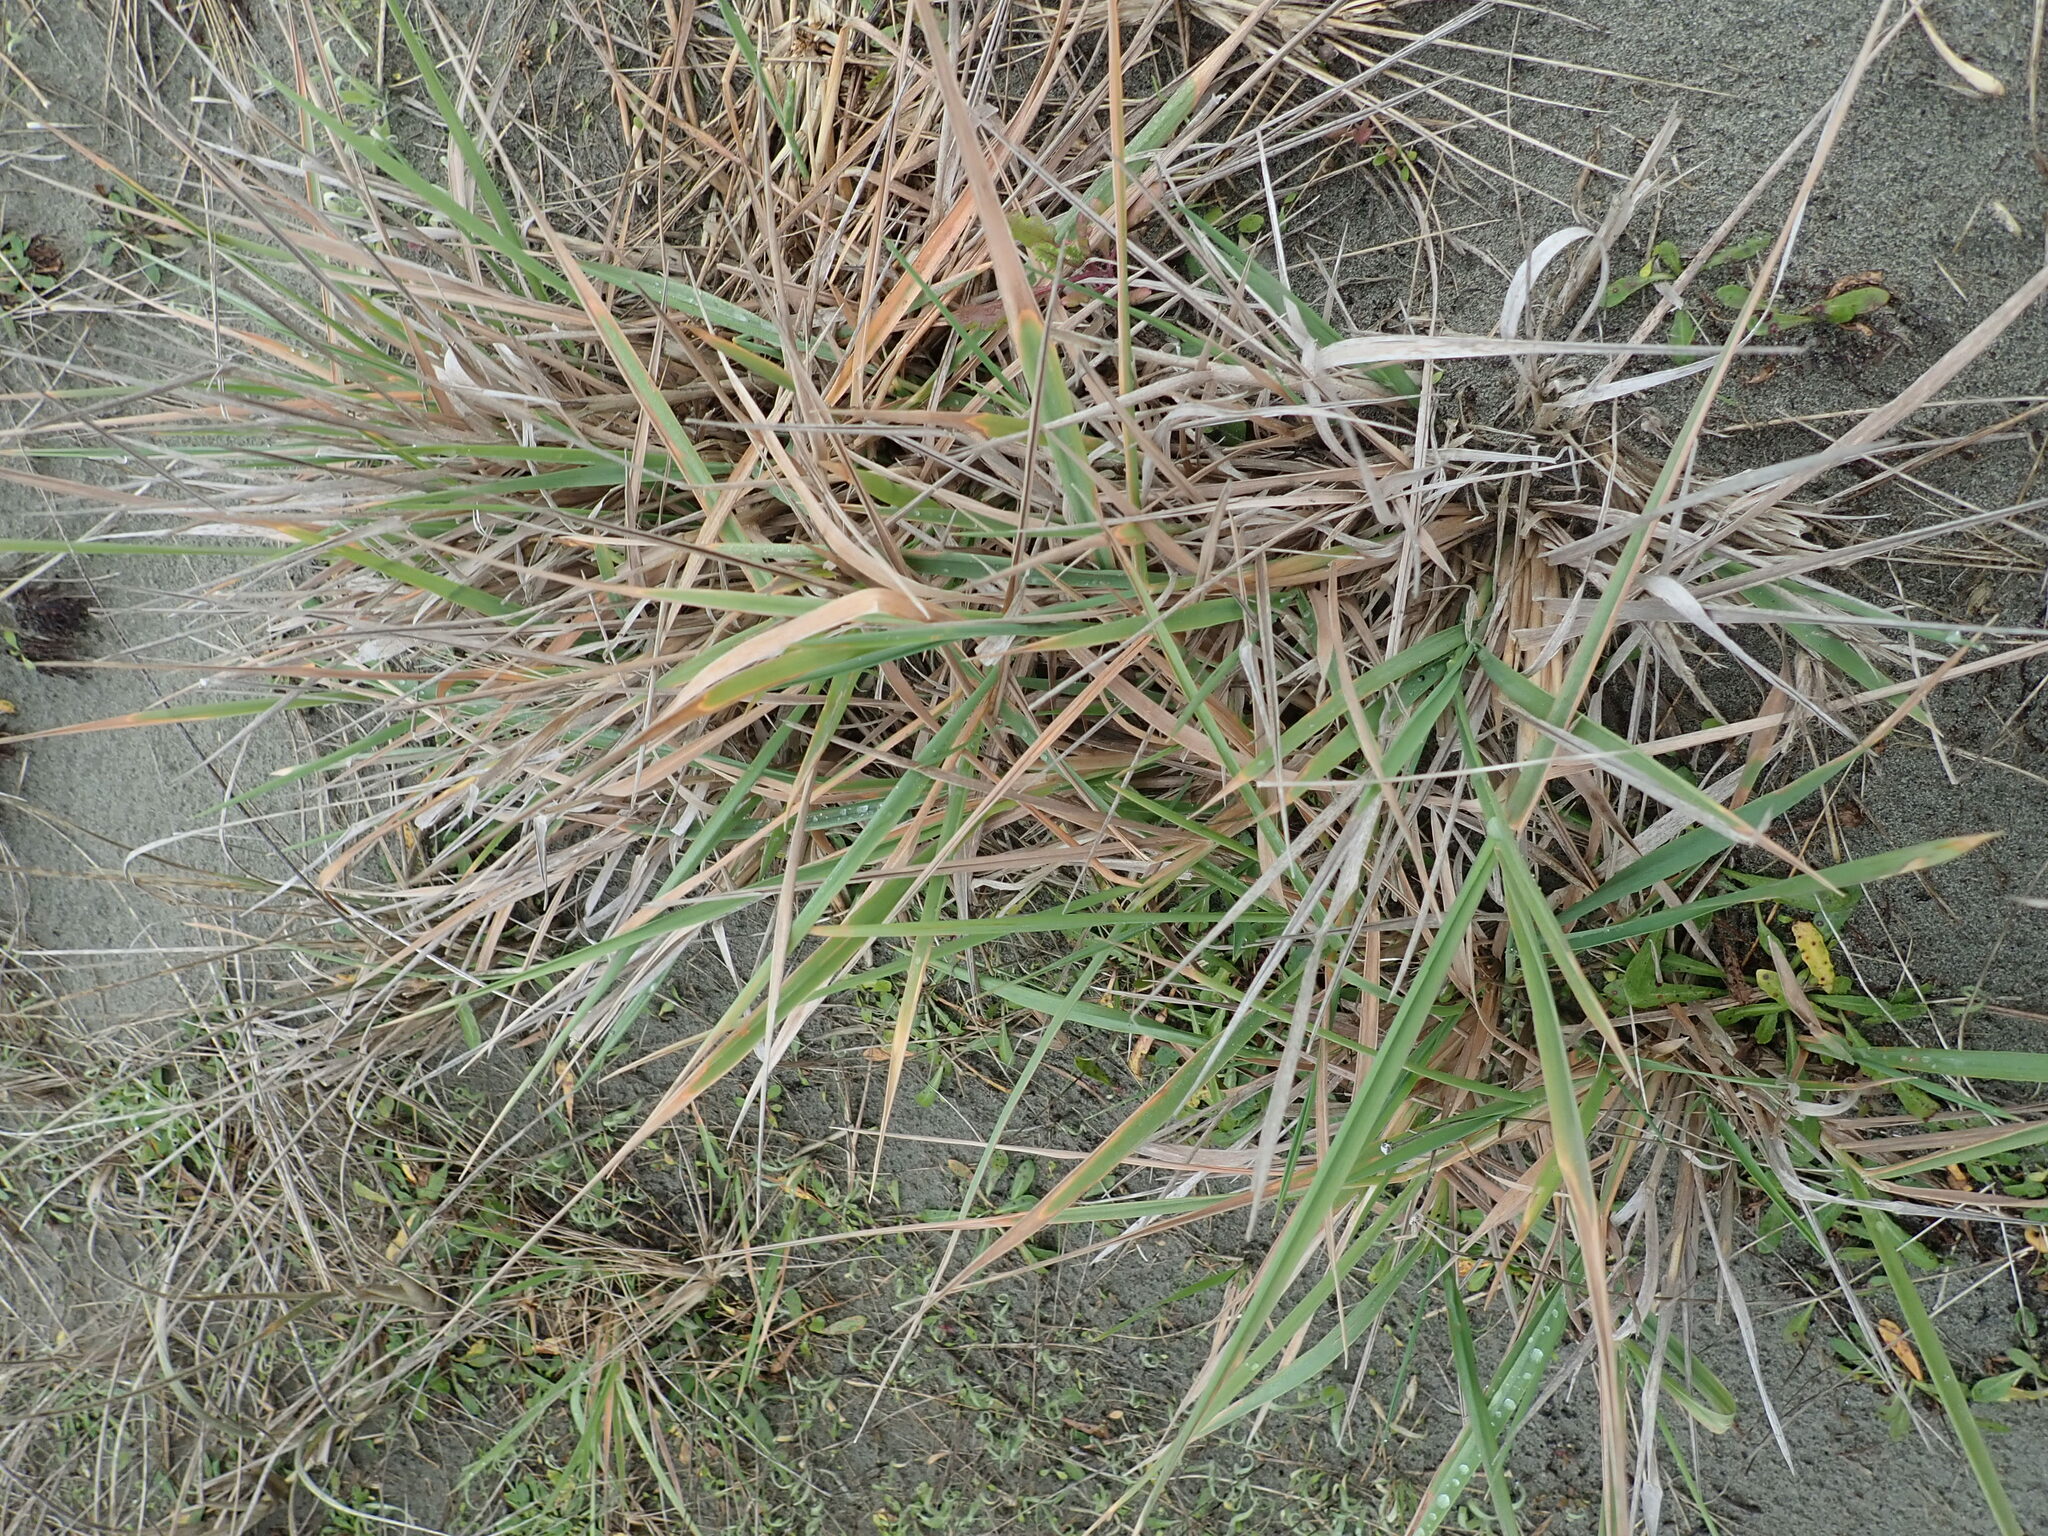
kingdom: Plantae
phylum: Tracheophyta
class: Liliopsida
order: Poales
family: Poaceae
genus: Lachnagrostis
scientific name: Lachnagrostis billardierei
